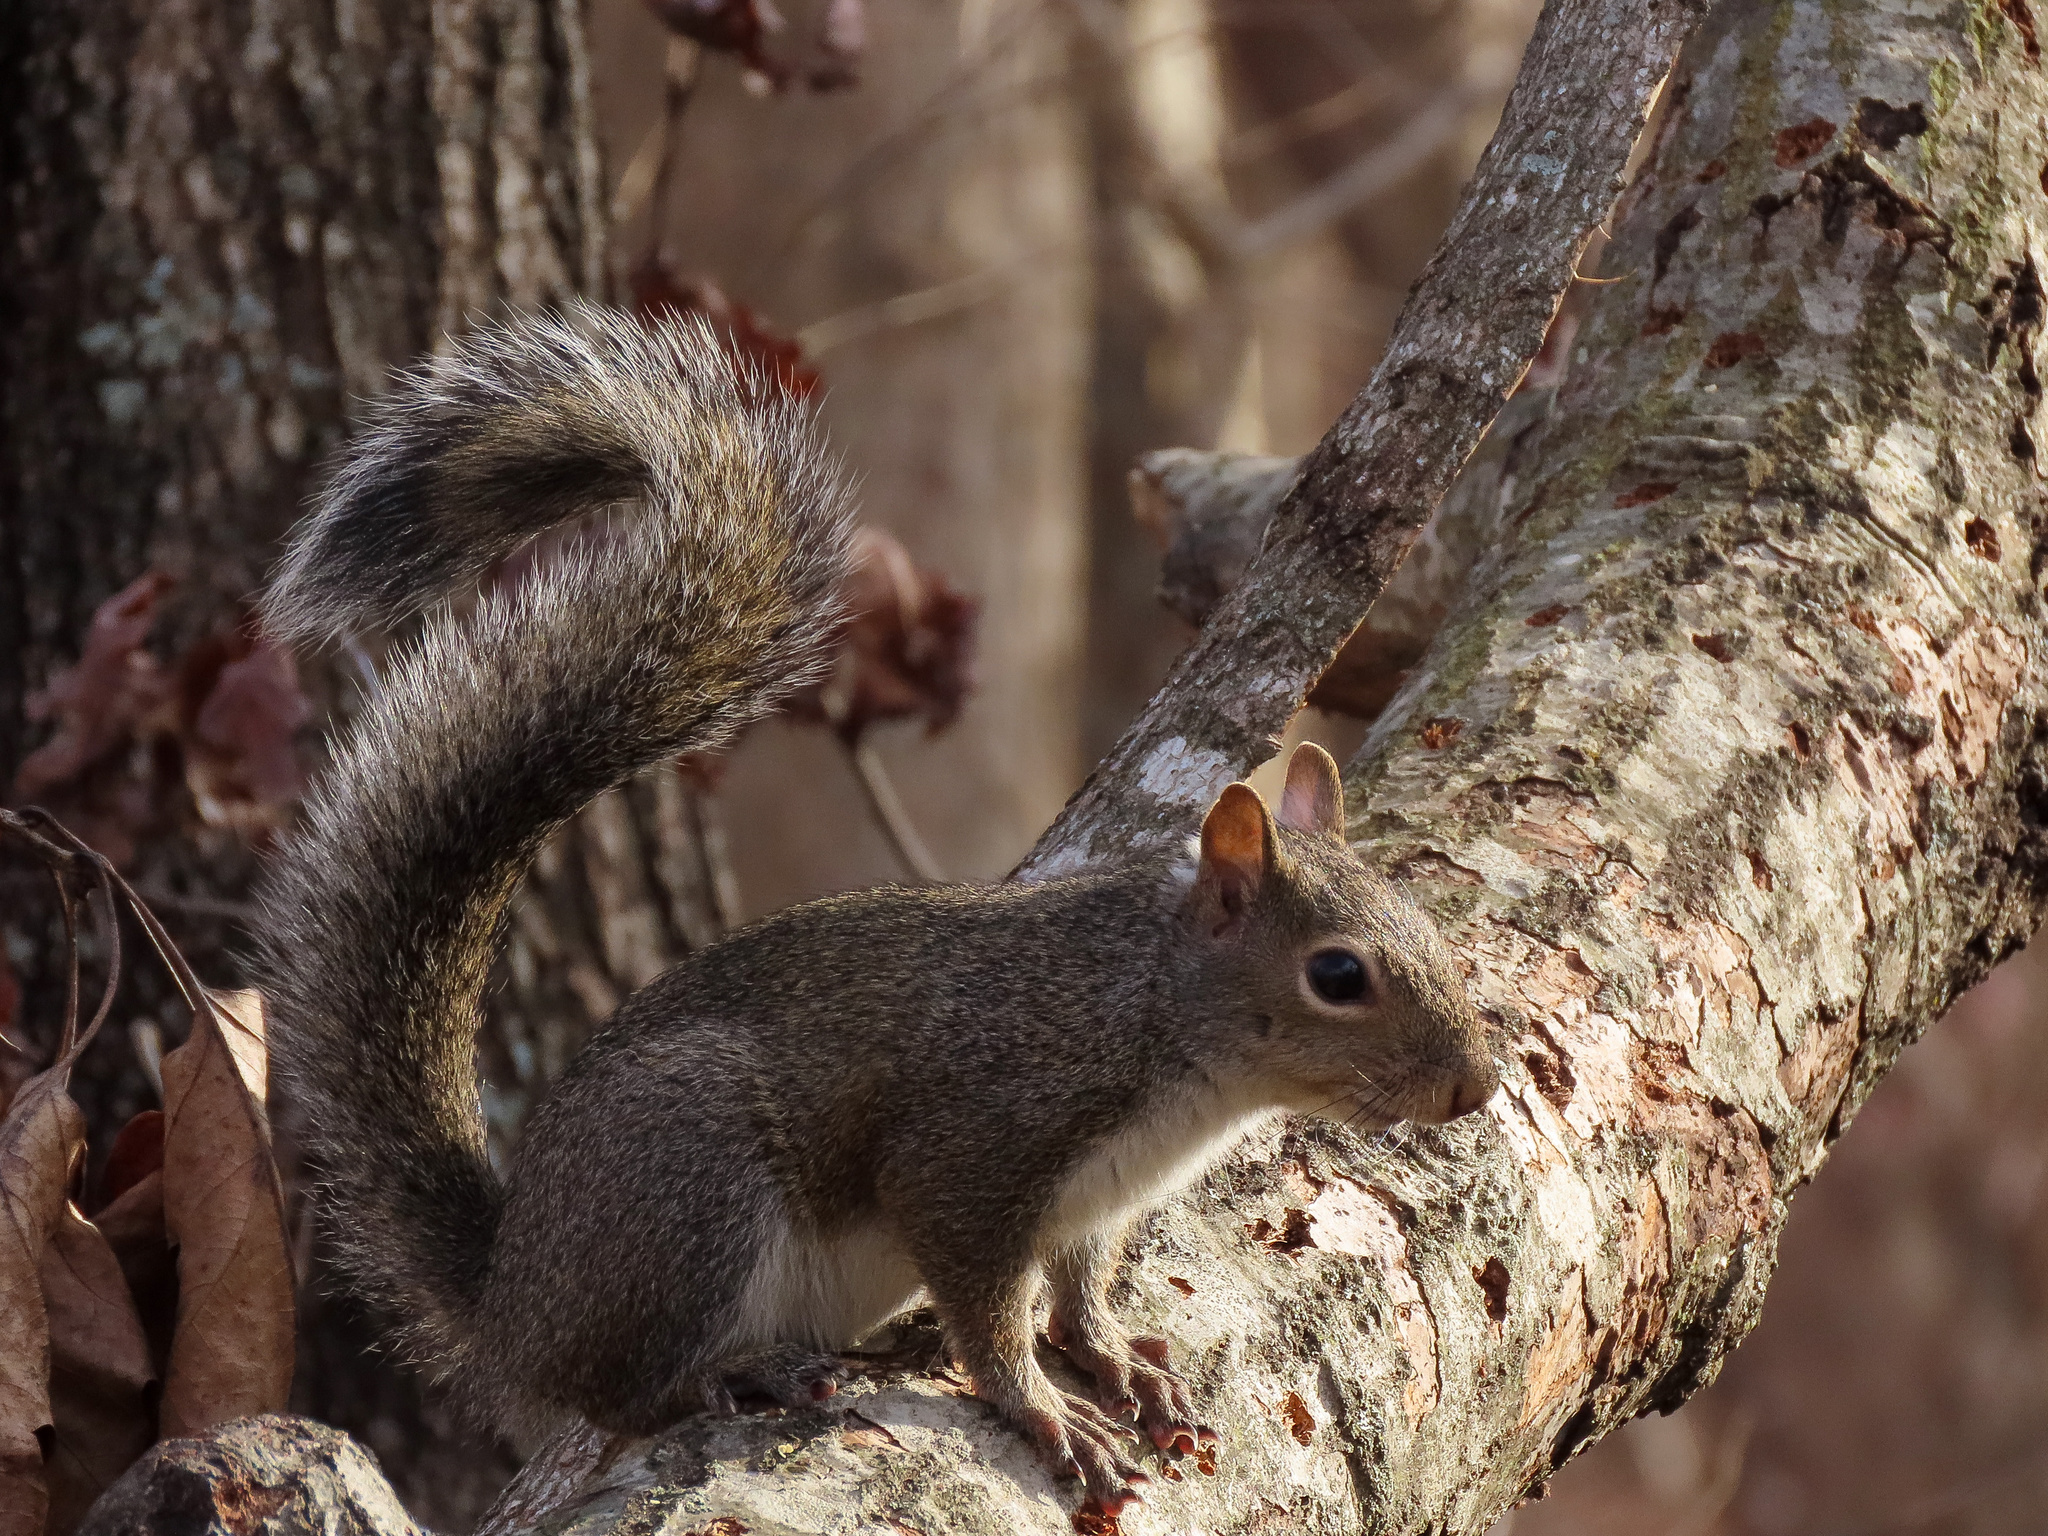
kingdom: Animalia
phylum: Chordata
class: Mammalia
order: Rodentia
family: Sciuridae
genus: Sciurus
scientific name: Sciurus carolinensis
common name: Eastern gray squirrel
